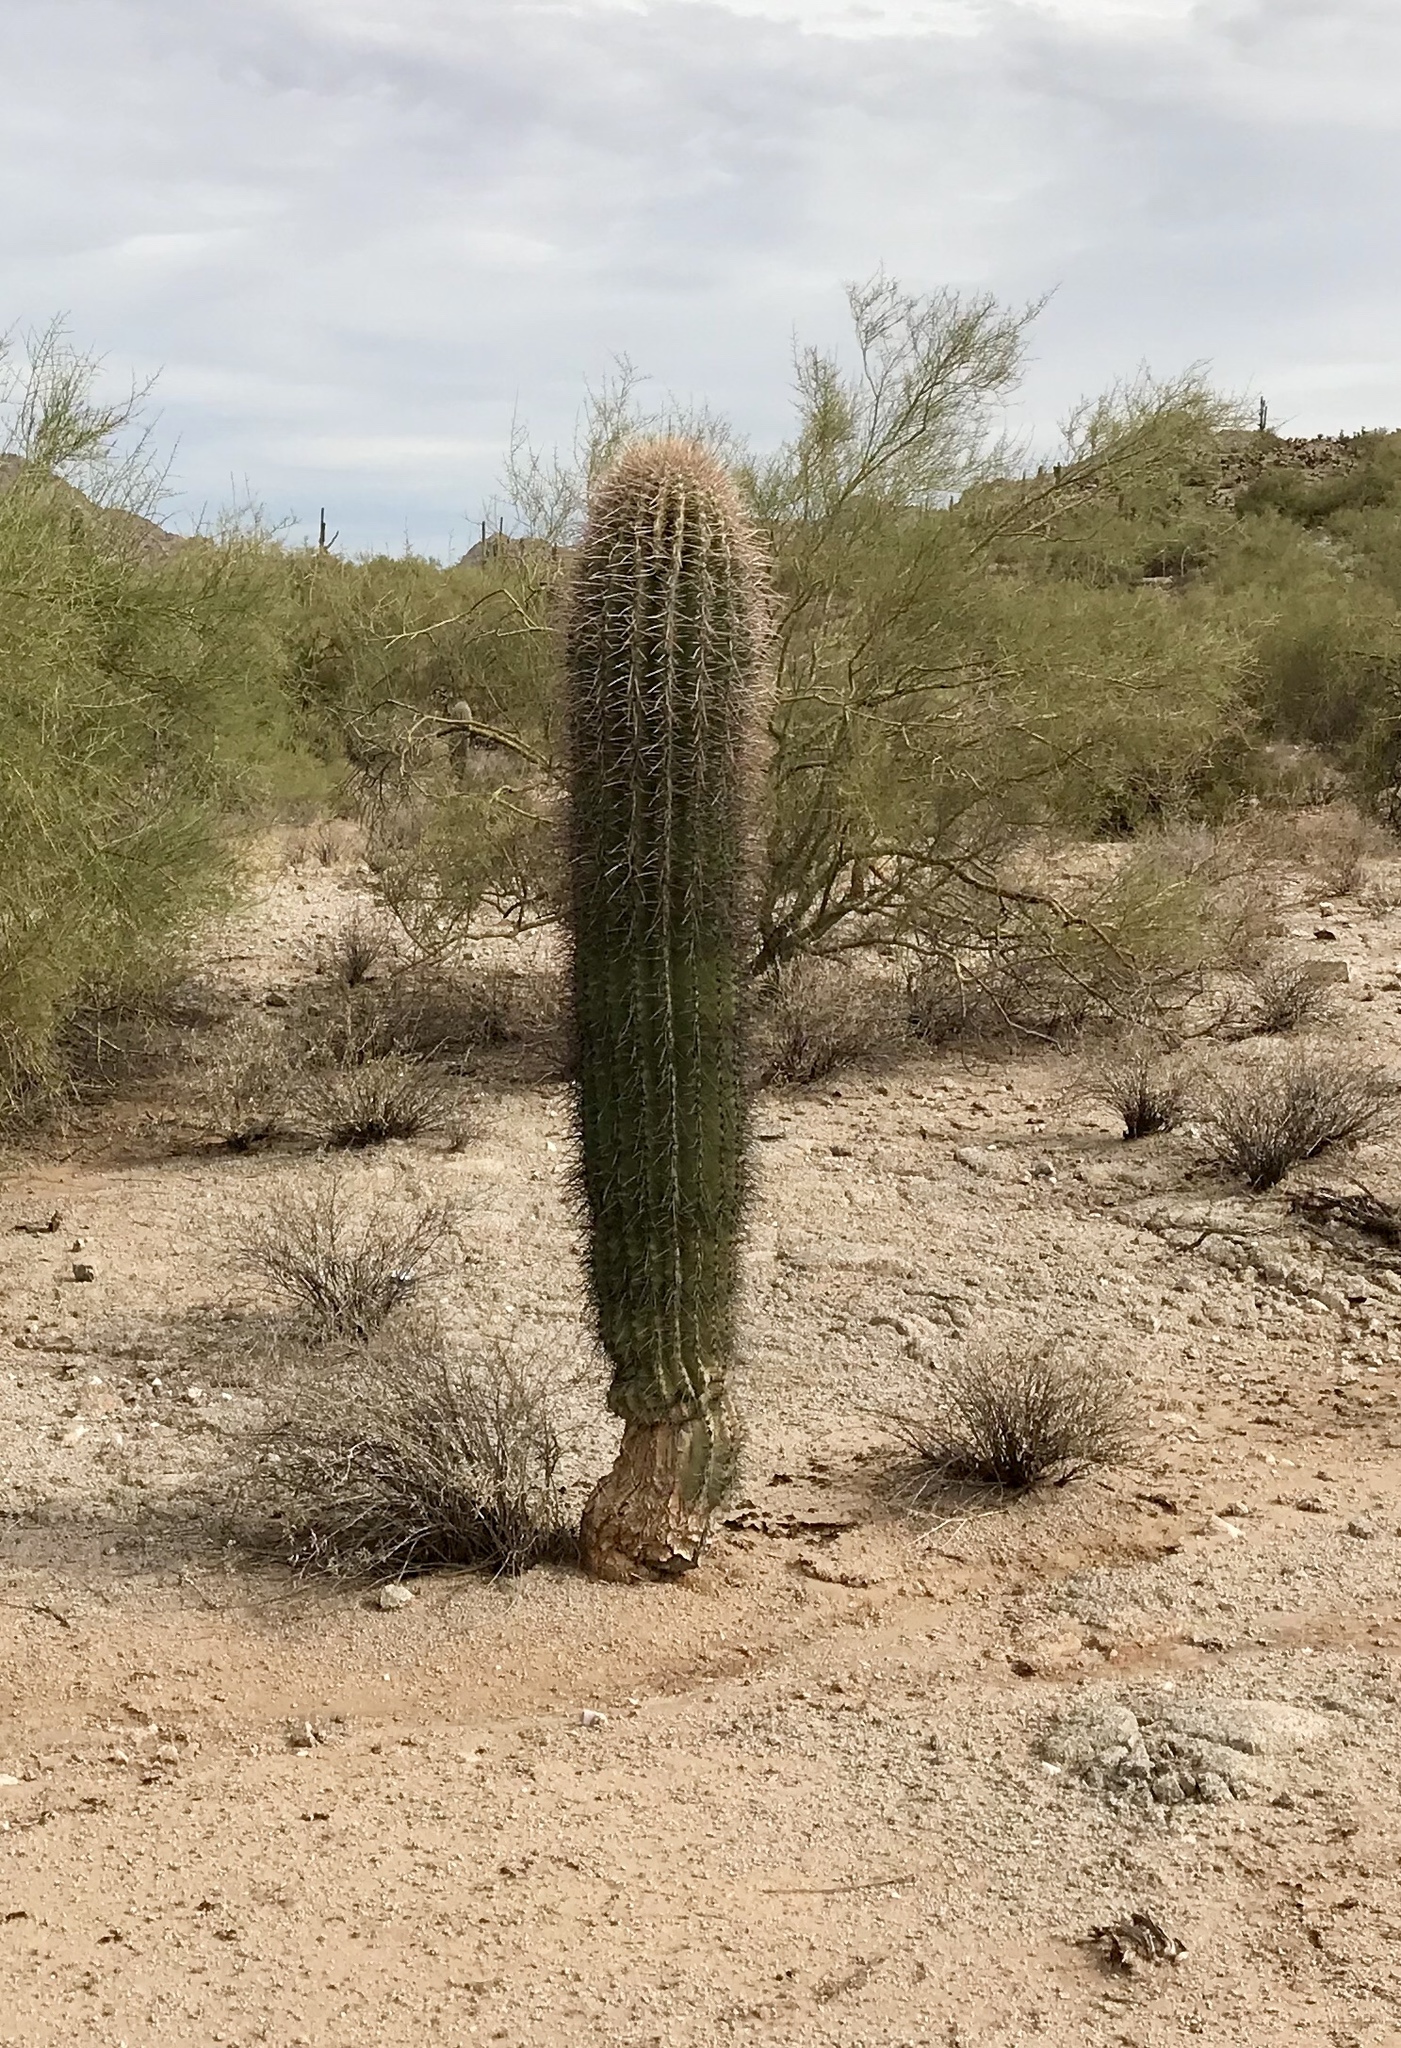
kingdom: Plantae
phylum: Tracheophyta
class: Magnoliopsida
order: Caryophyllales
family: Cactaceae
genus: Carnegiea
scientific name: Carnegiea gigantea
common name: Saguaro
